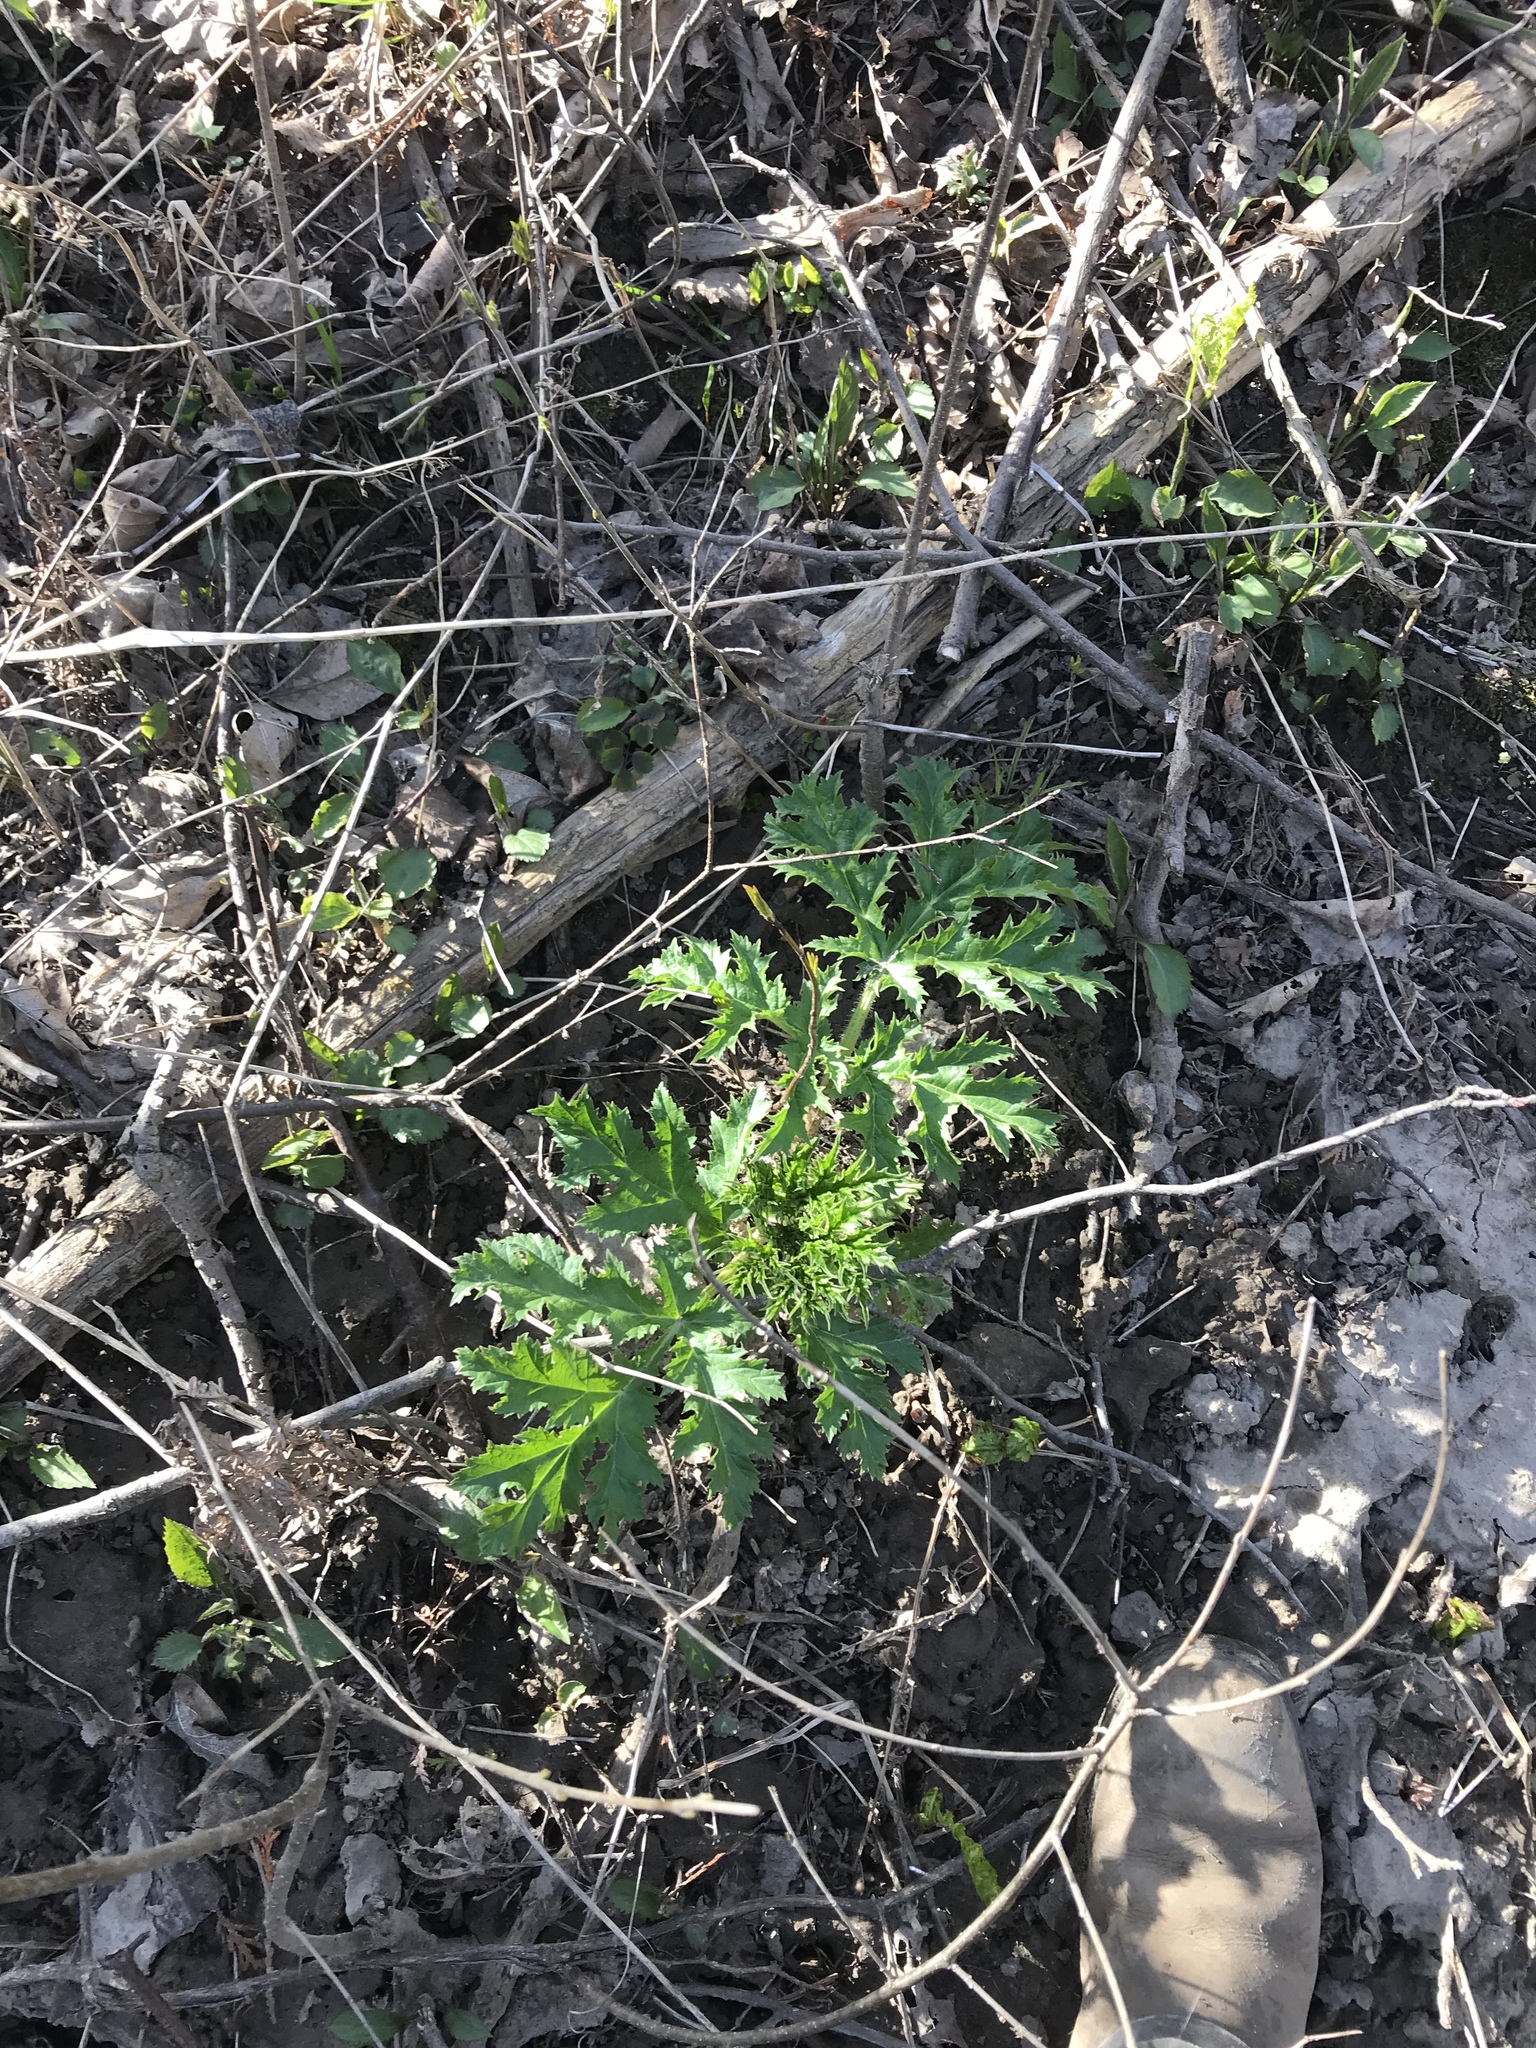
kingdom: Plantae
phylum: Tracheophyta
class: Magnoliopsida
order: Apiales
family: Apiaceae
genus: Heracleum
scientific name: Heracleum mantegazzianum
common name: Giant hogweed
